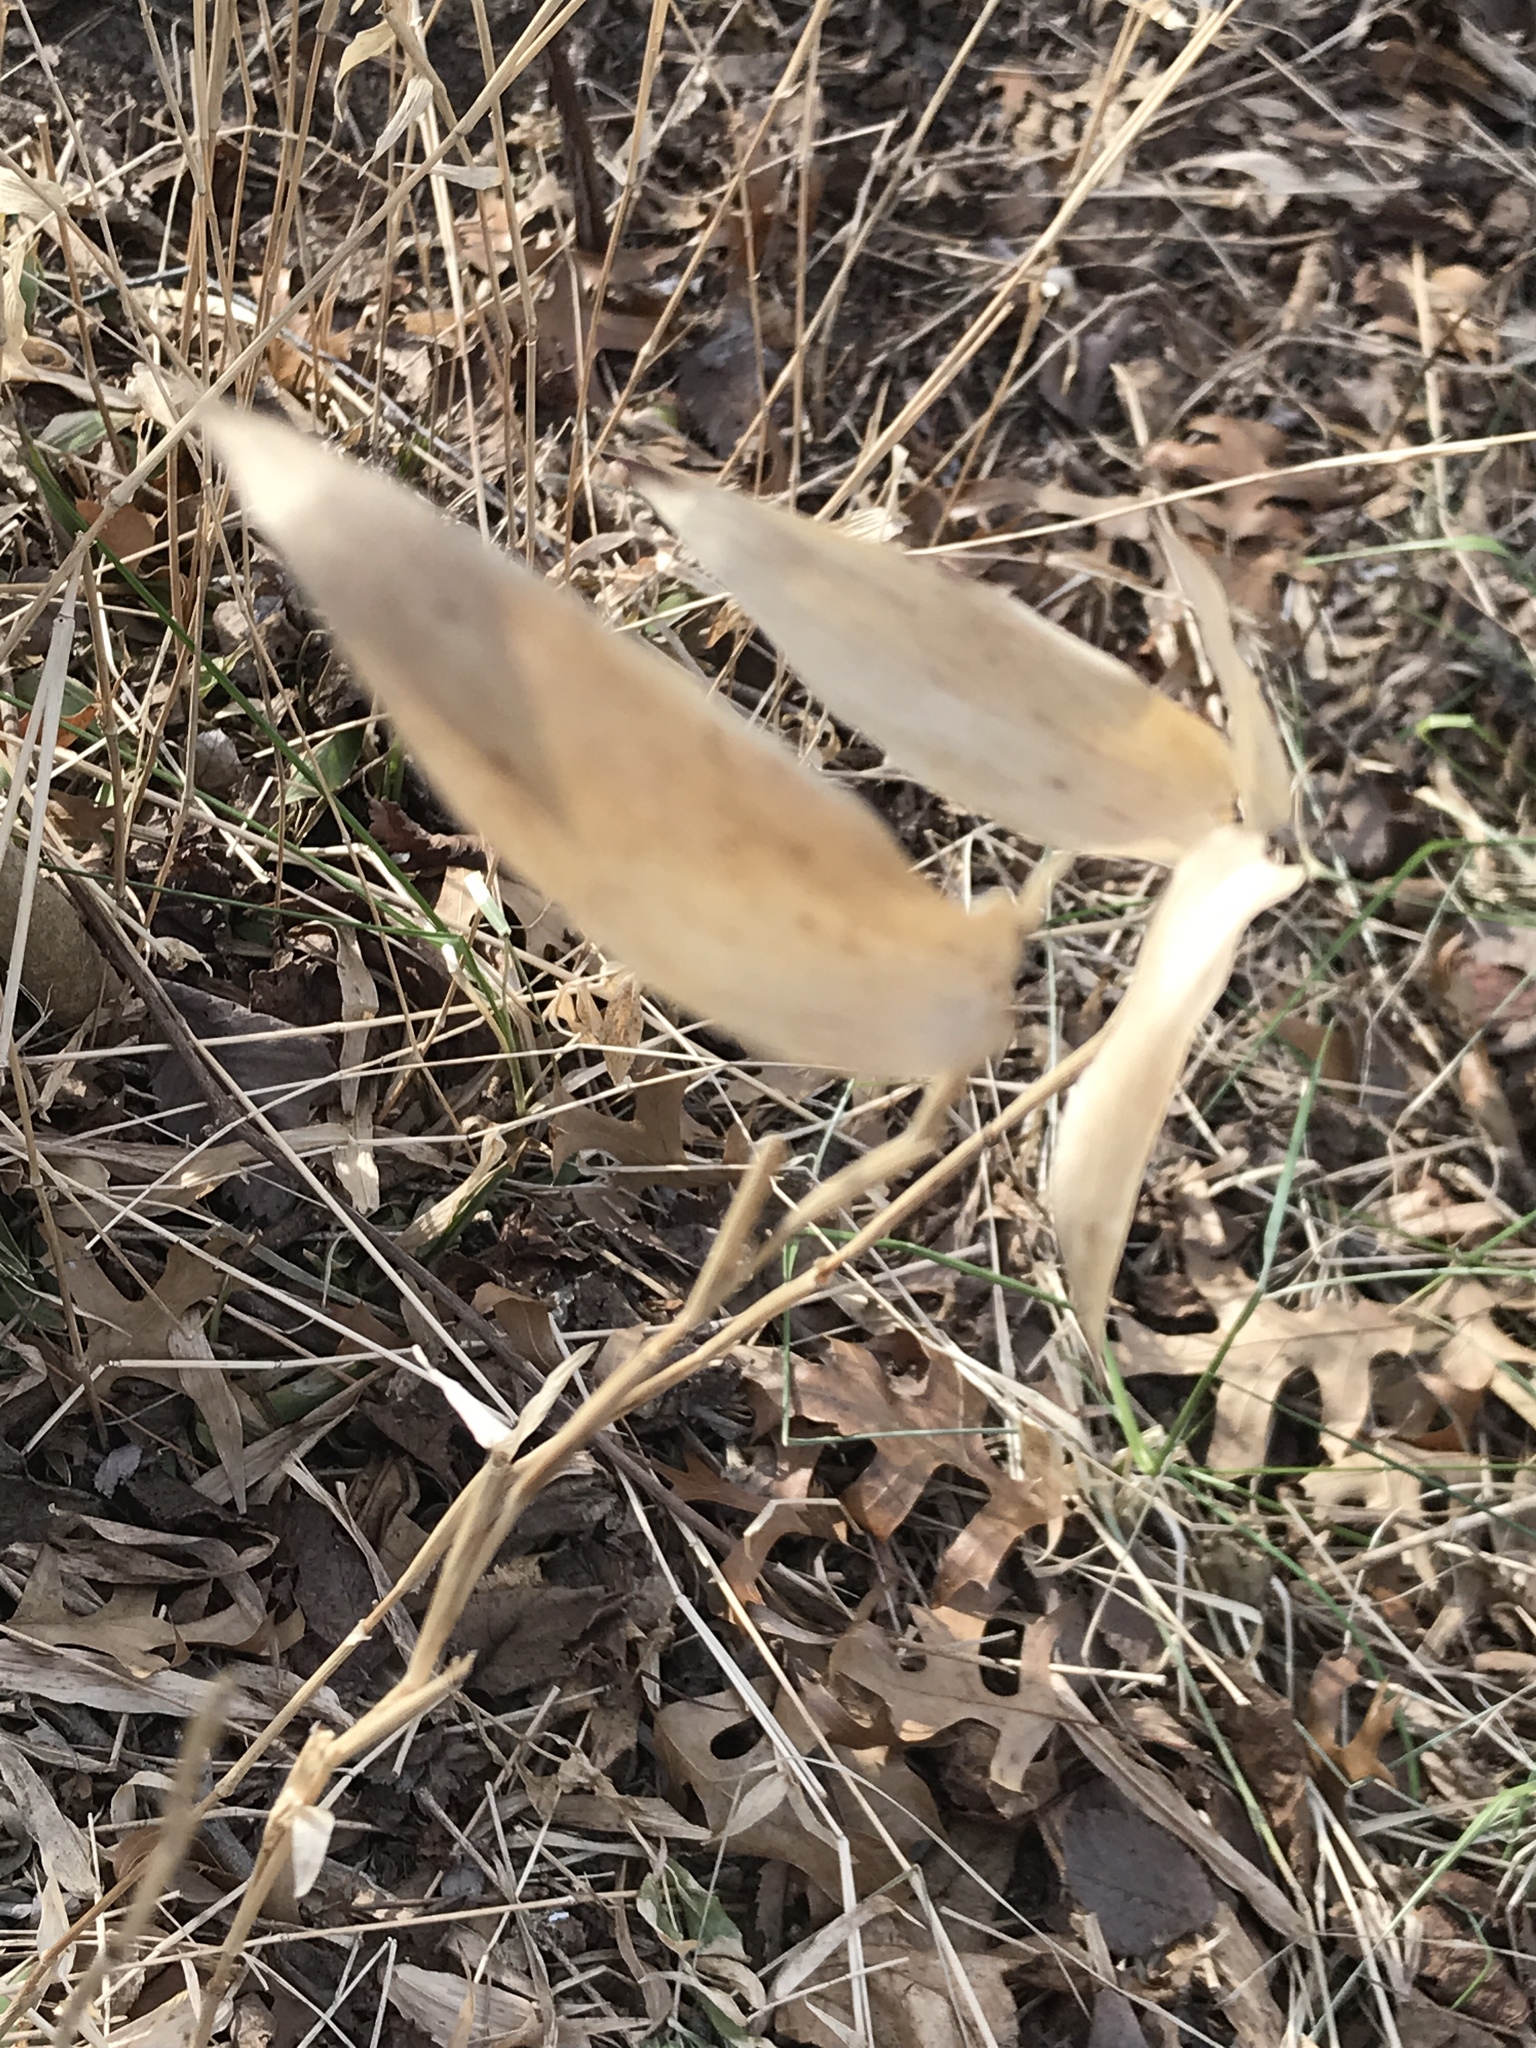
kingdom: Plantae
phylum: Tracheophyta
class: Liliopsida
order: Poales
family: Poaceae
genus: Dichanthelium
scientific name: Dichanthelium clandestinum
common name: Deer-tongue grass
